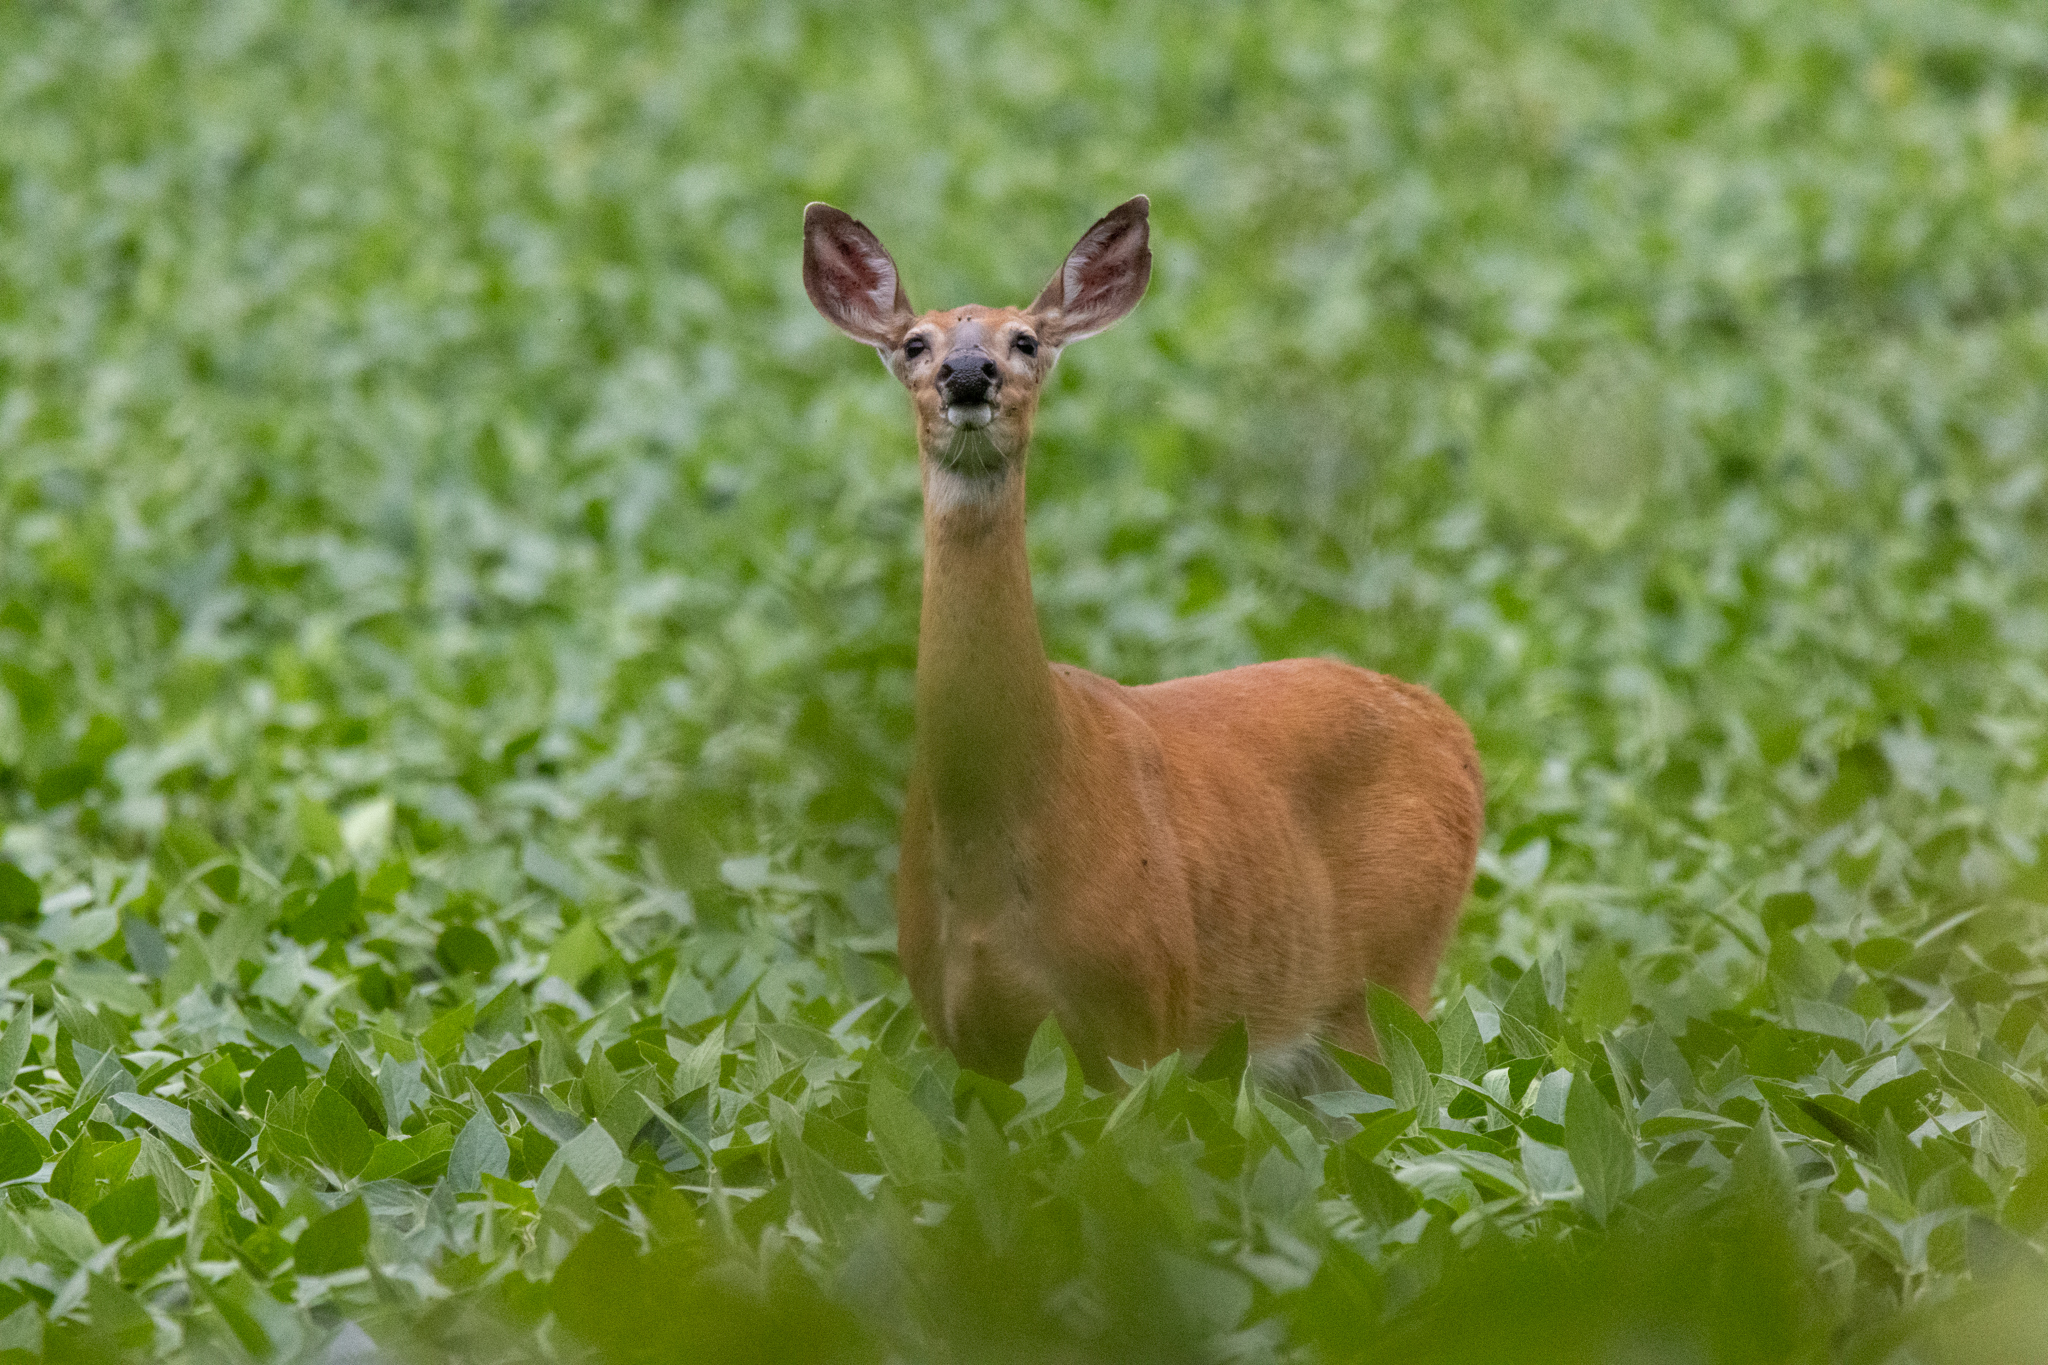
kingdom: Animalia
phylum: Chordata
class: Mammalia
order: Artiodactyla
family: Cervidae
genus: Odocoileus
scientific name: Odocoileus virginianus
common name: White-tailed deer
